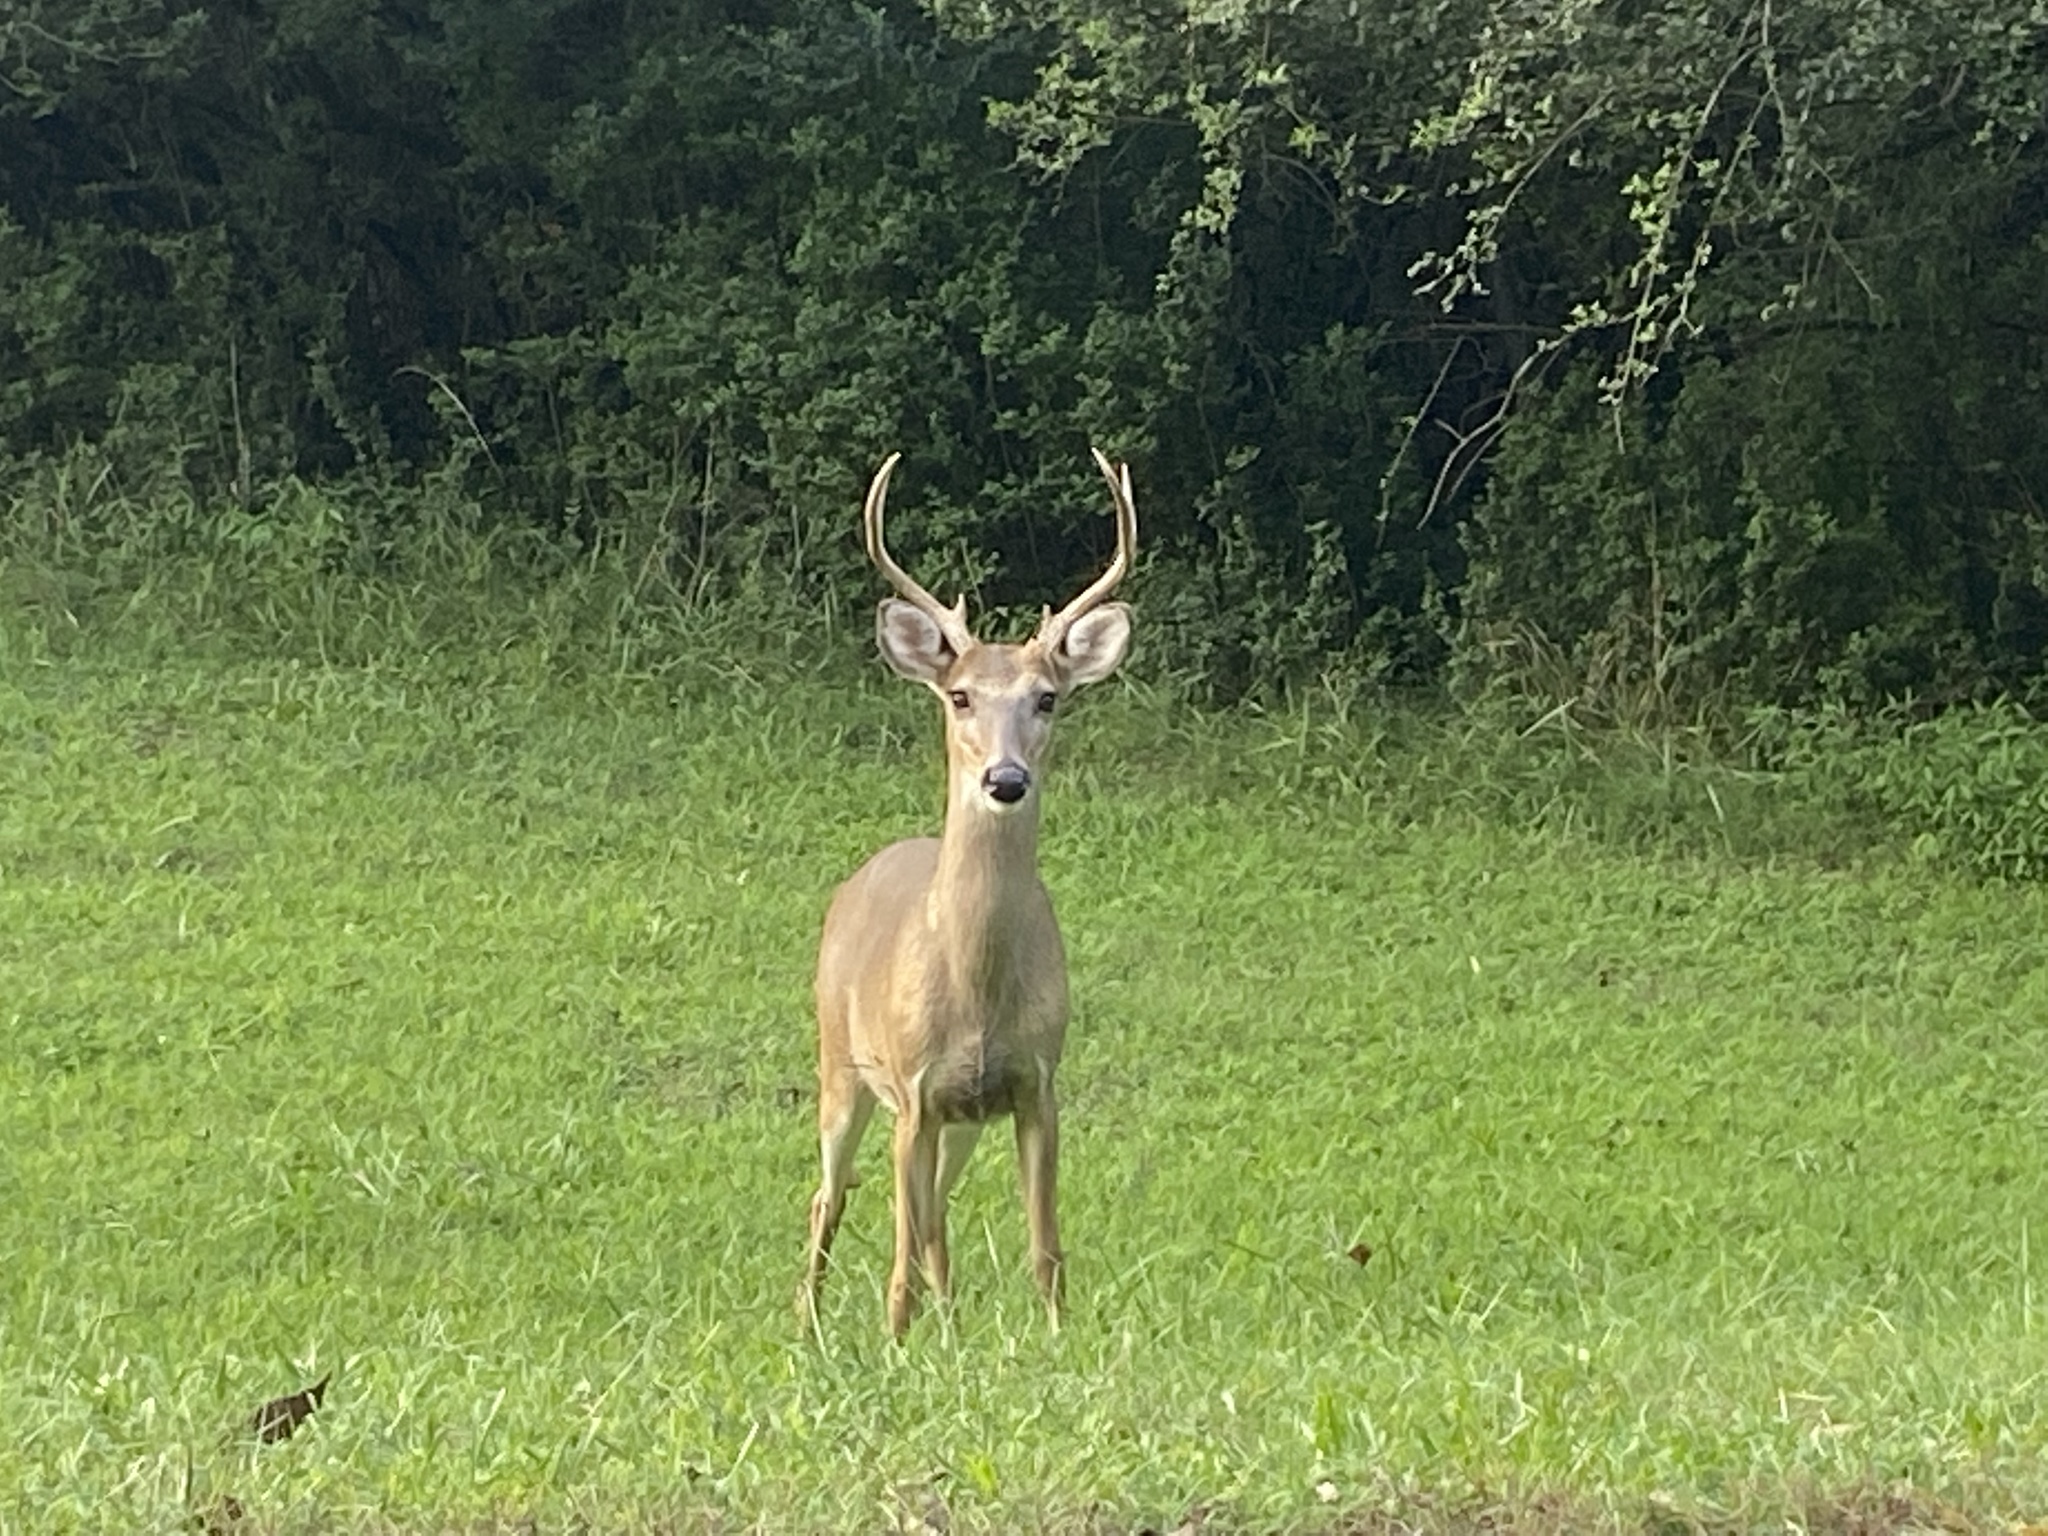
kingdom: Animalia
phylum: Chordata
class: Mammalia
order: Artiodactyla
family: Cervidae
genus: Odocoileus
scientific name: Odocoileus virginianus
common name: White-tailed deer
